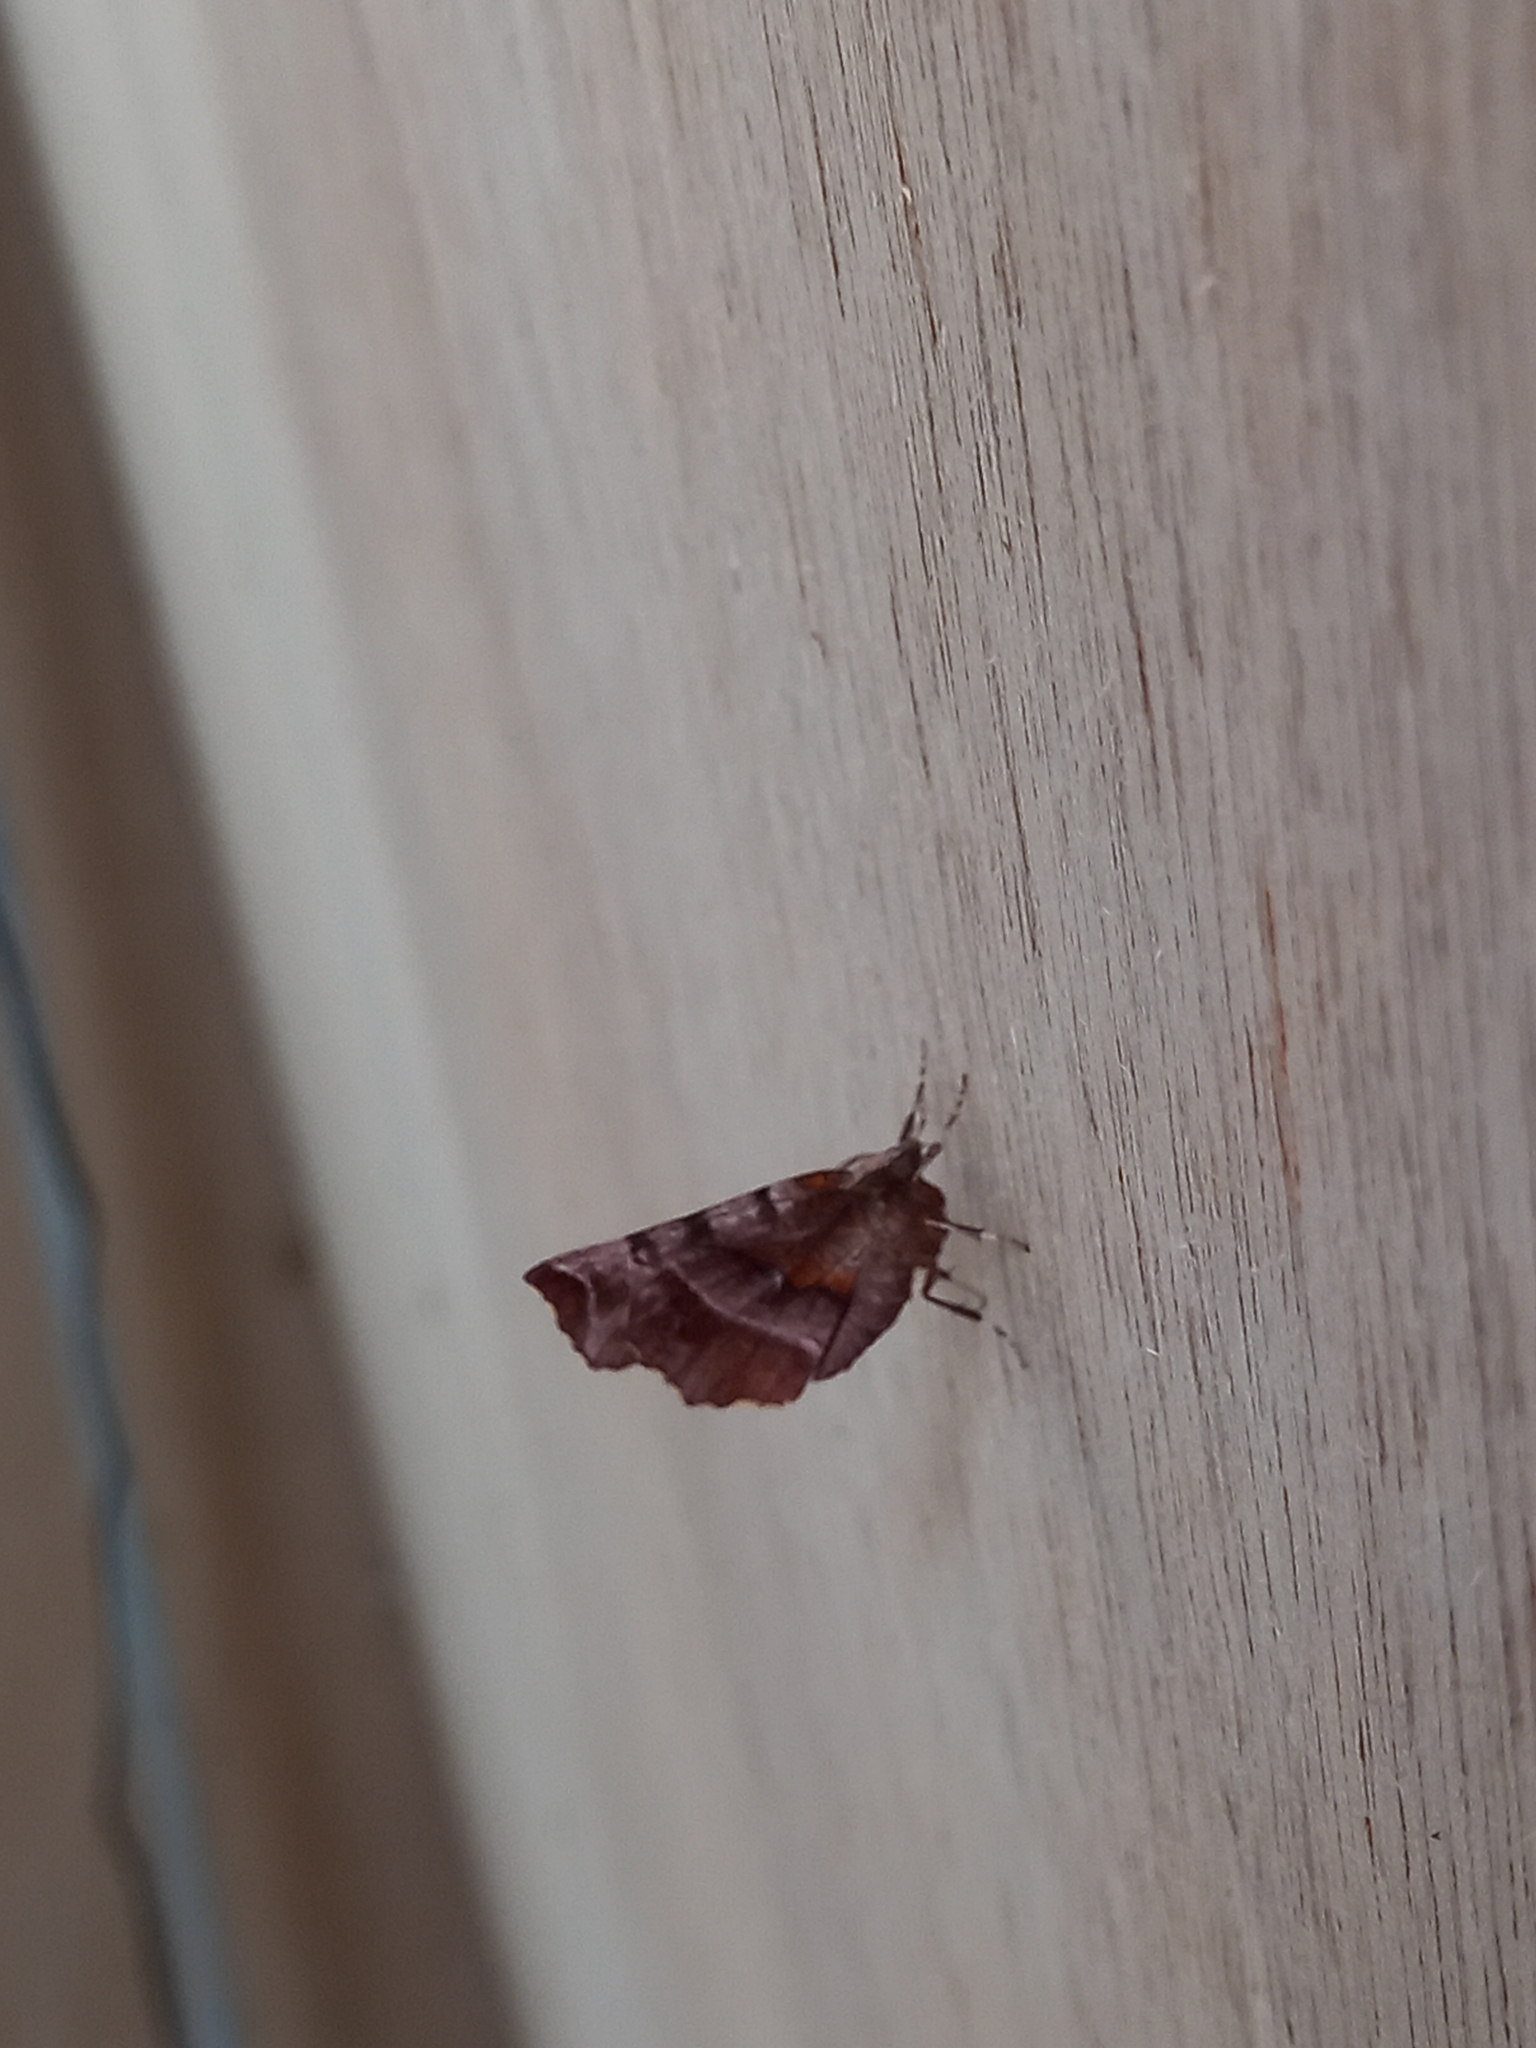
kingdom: Animalia
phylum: Arthropoda
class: Insecta
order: Lepidoptera
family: Geometridae
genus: Selenia
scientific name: Selenia dentaria
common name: Early thorn
